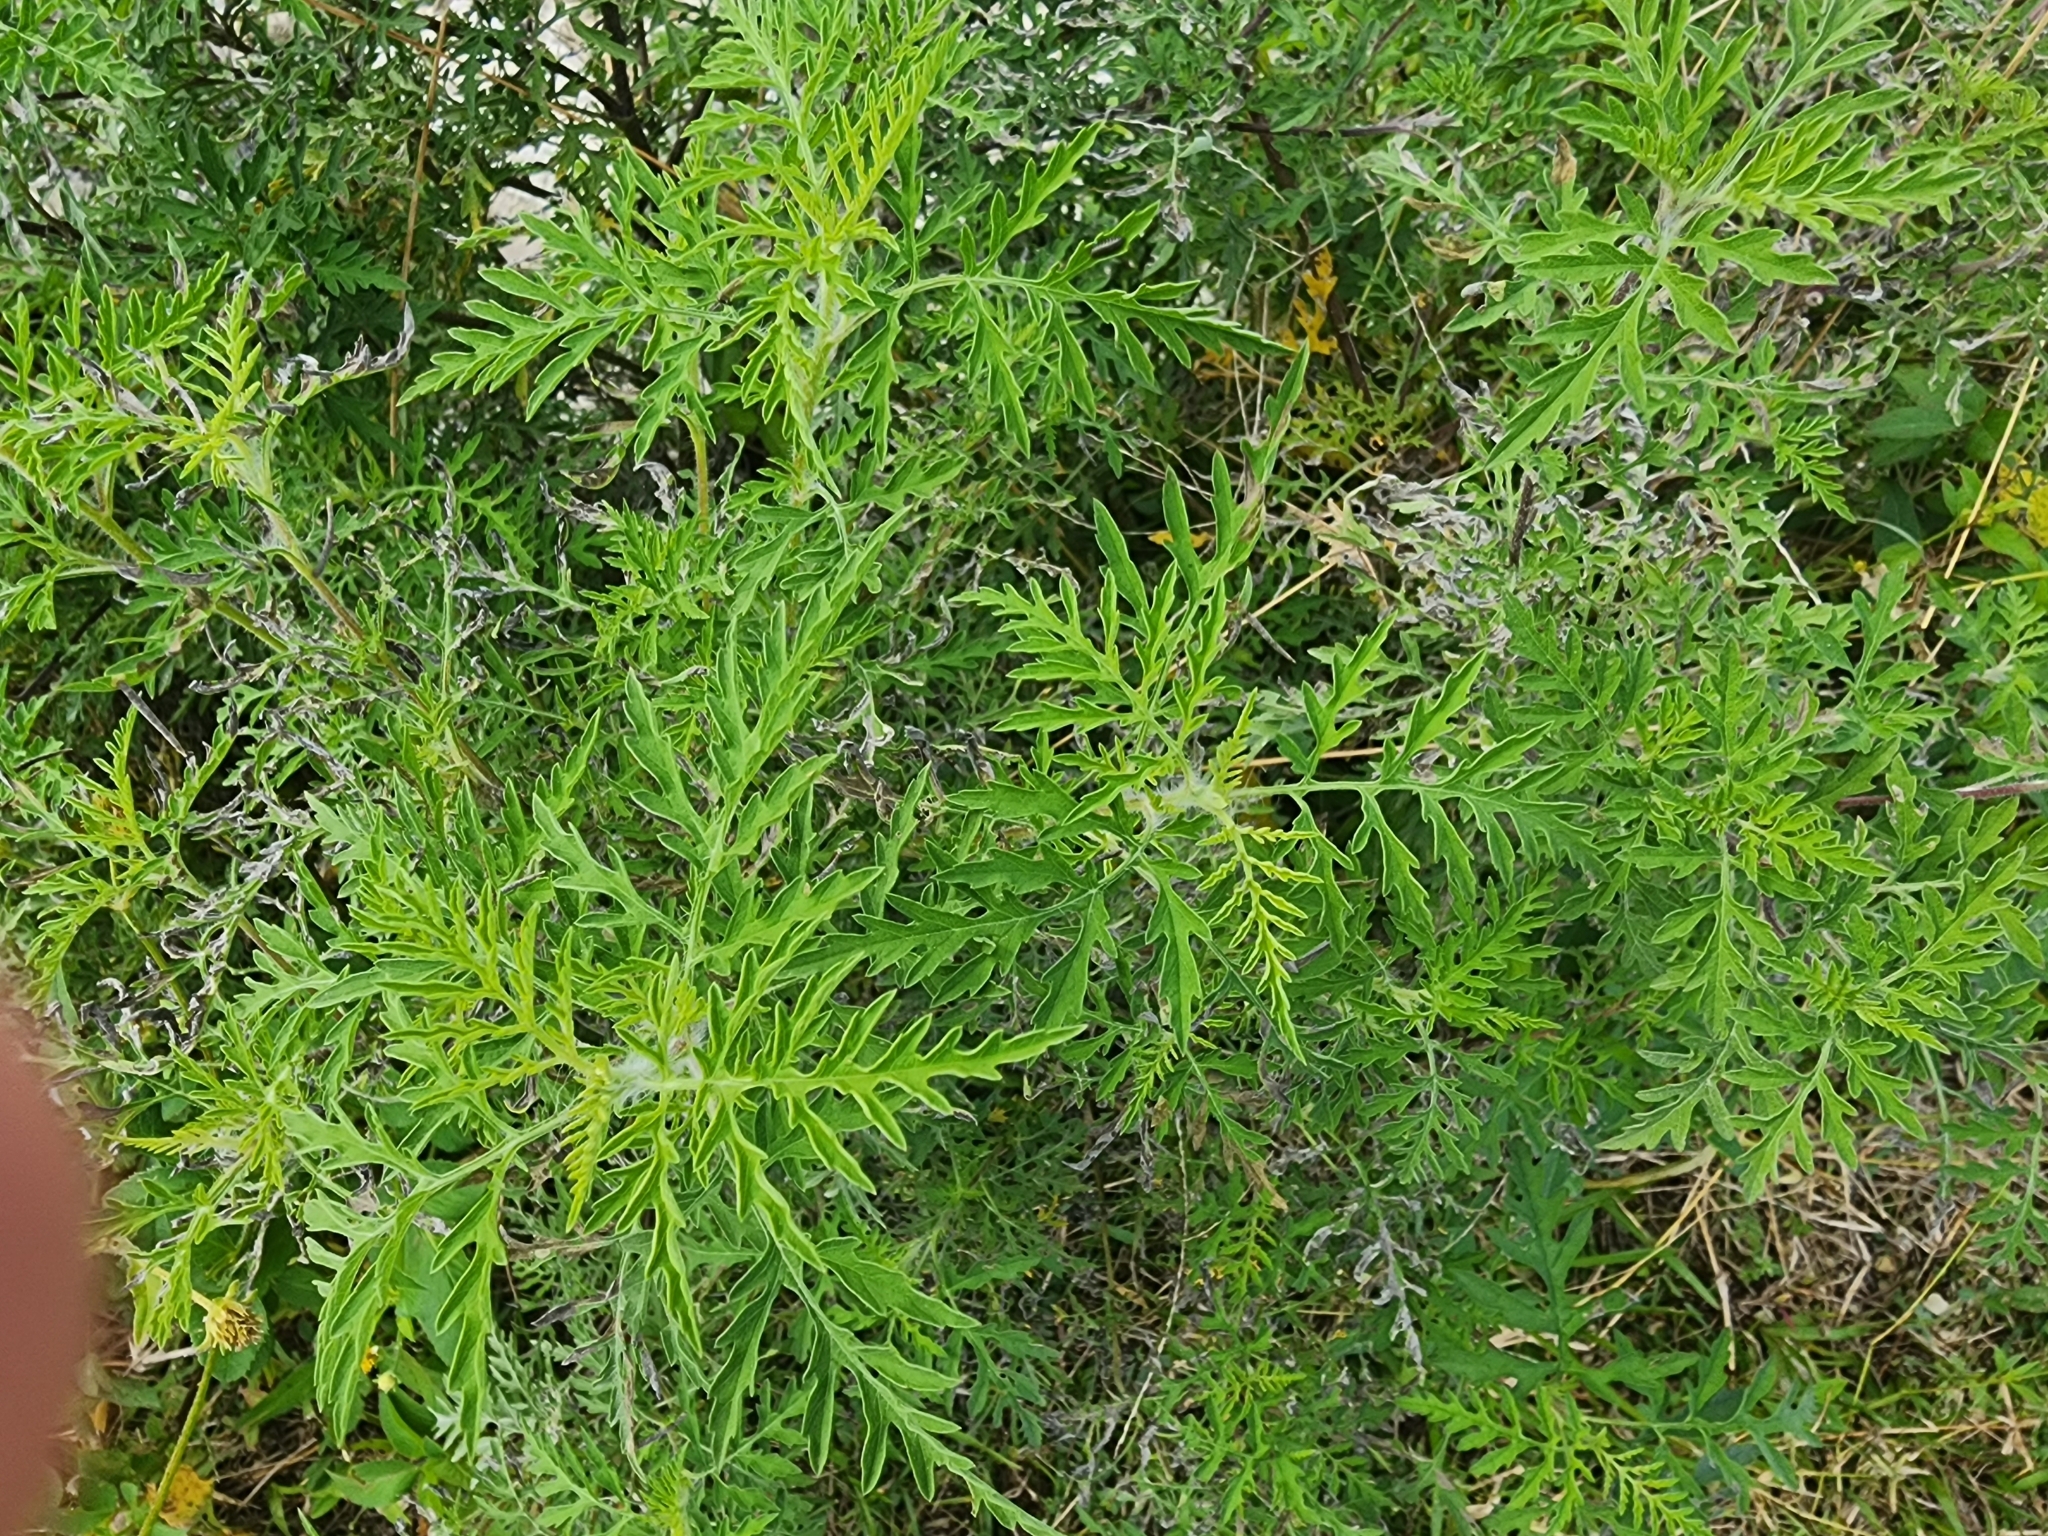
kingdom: Plantae
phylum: Tracheophyta
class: Magnoliopsida
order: Asterales
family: Asteraceae
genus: Ambrosia
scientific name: Ambrosia artemisiifolia
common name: Annual ragweed
